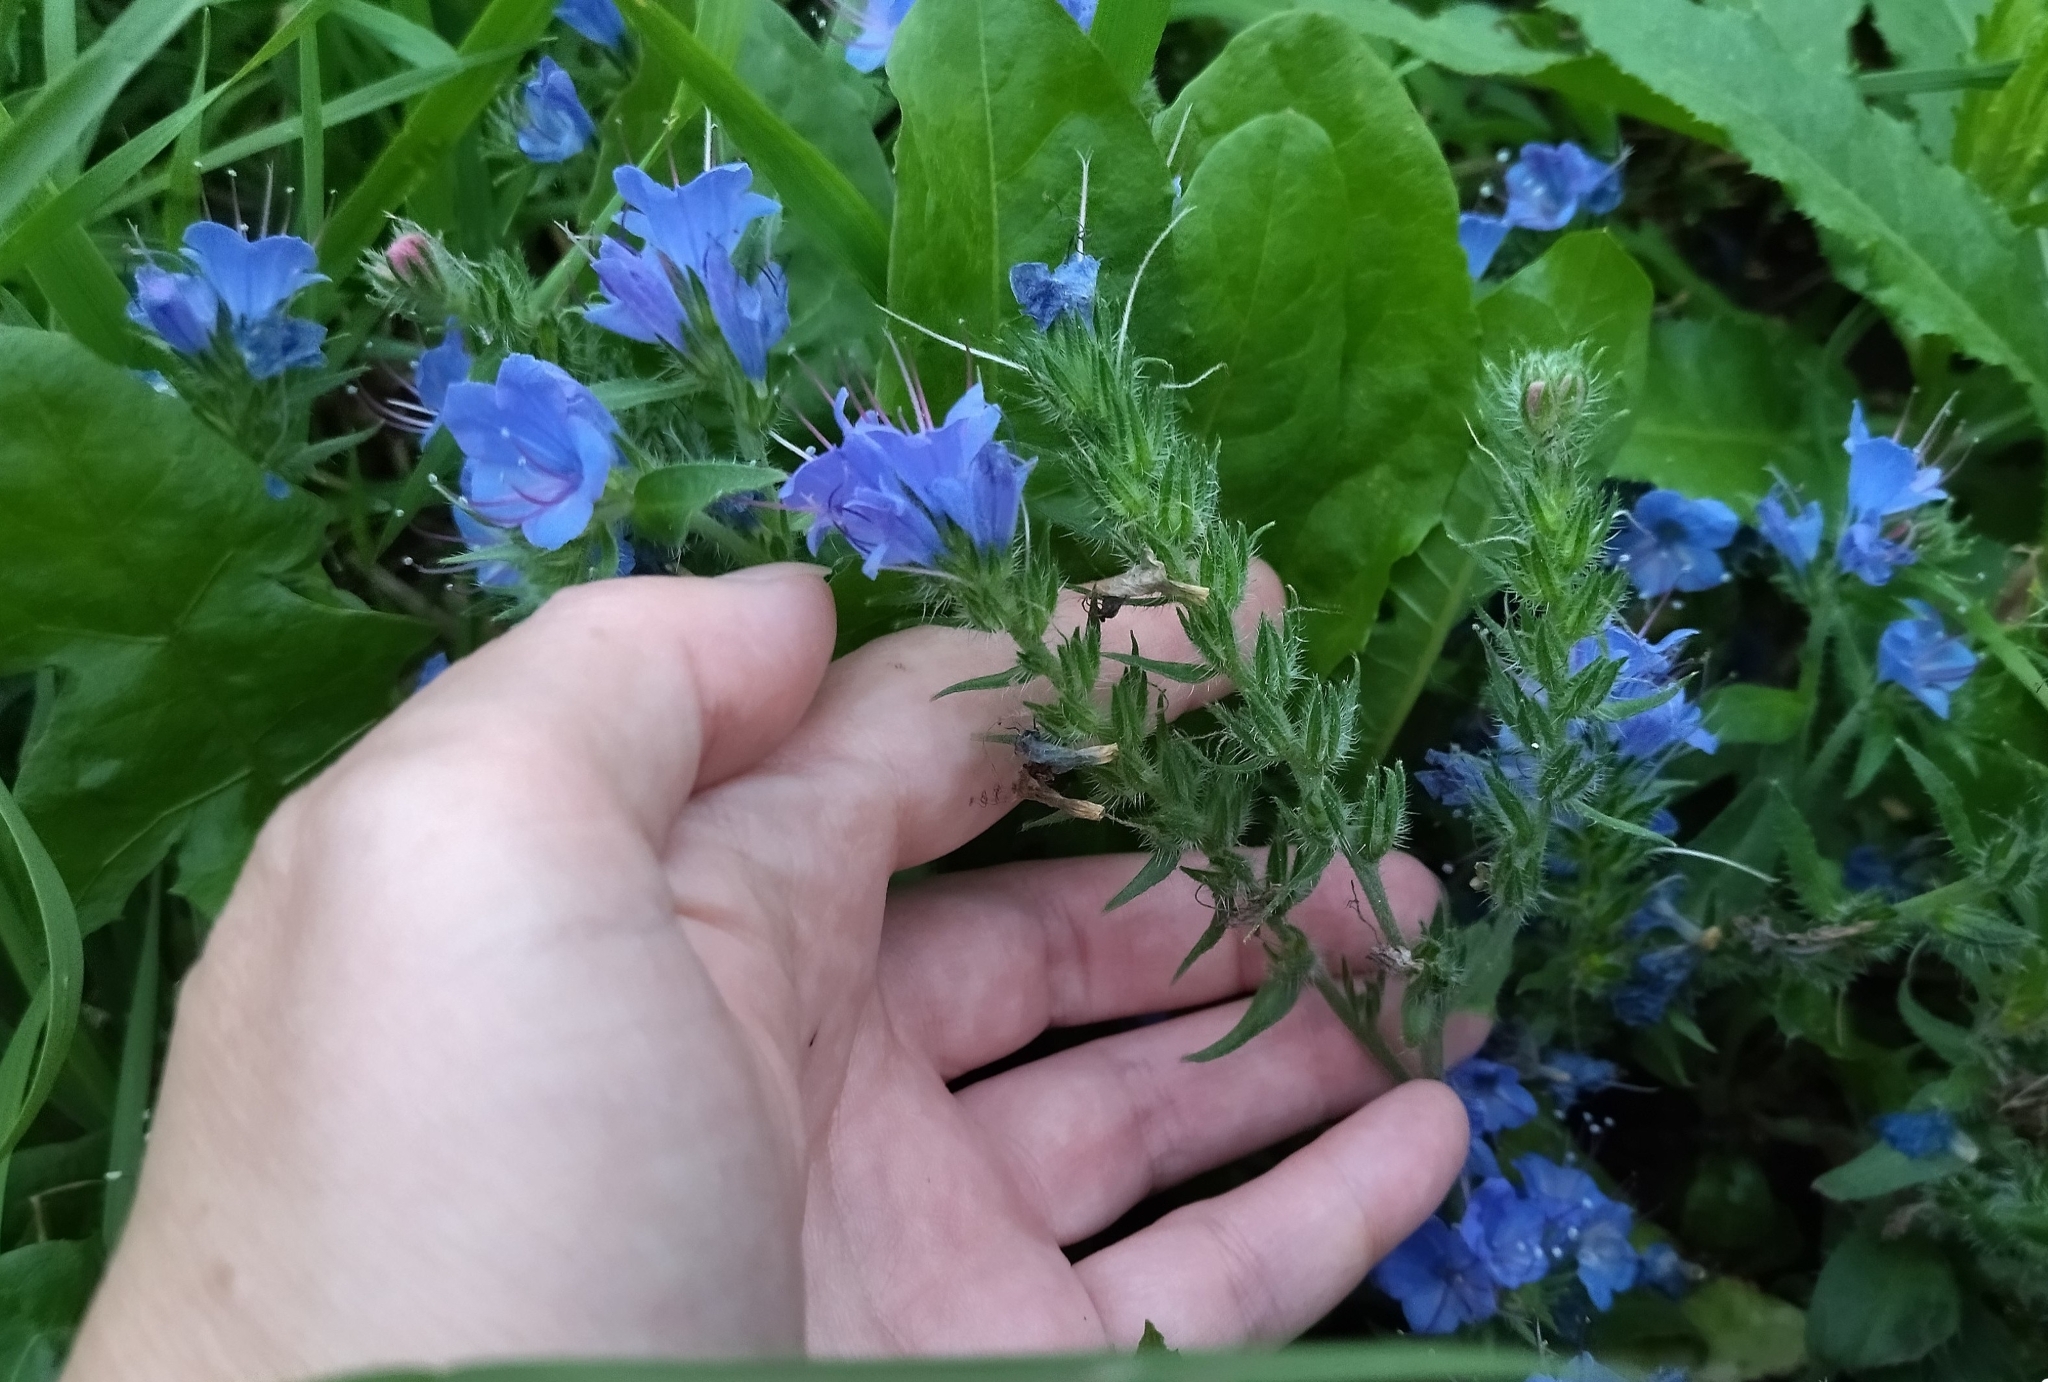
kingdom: Plantae
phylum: Tracheophyta
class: Magnoliopsida
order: Boraginales
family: Boraginaceae
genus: Echium
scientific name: Echium vulgare
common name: Common viper's bugloss
